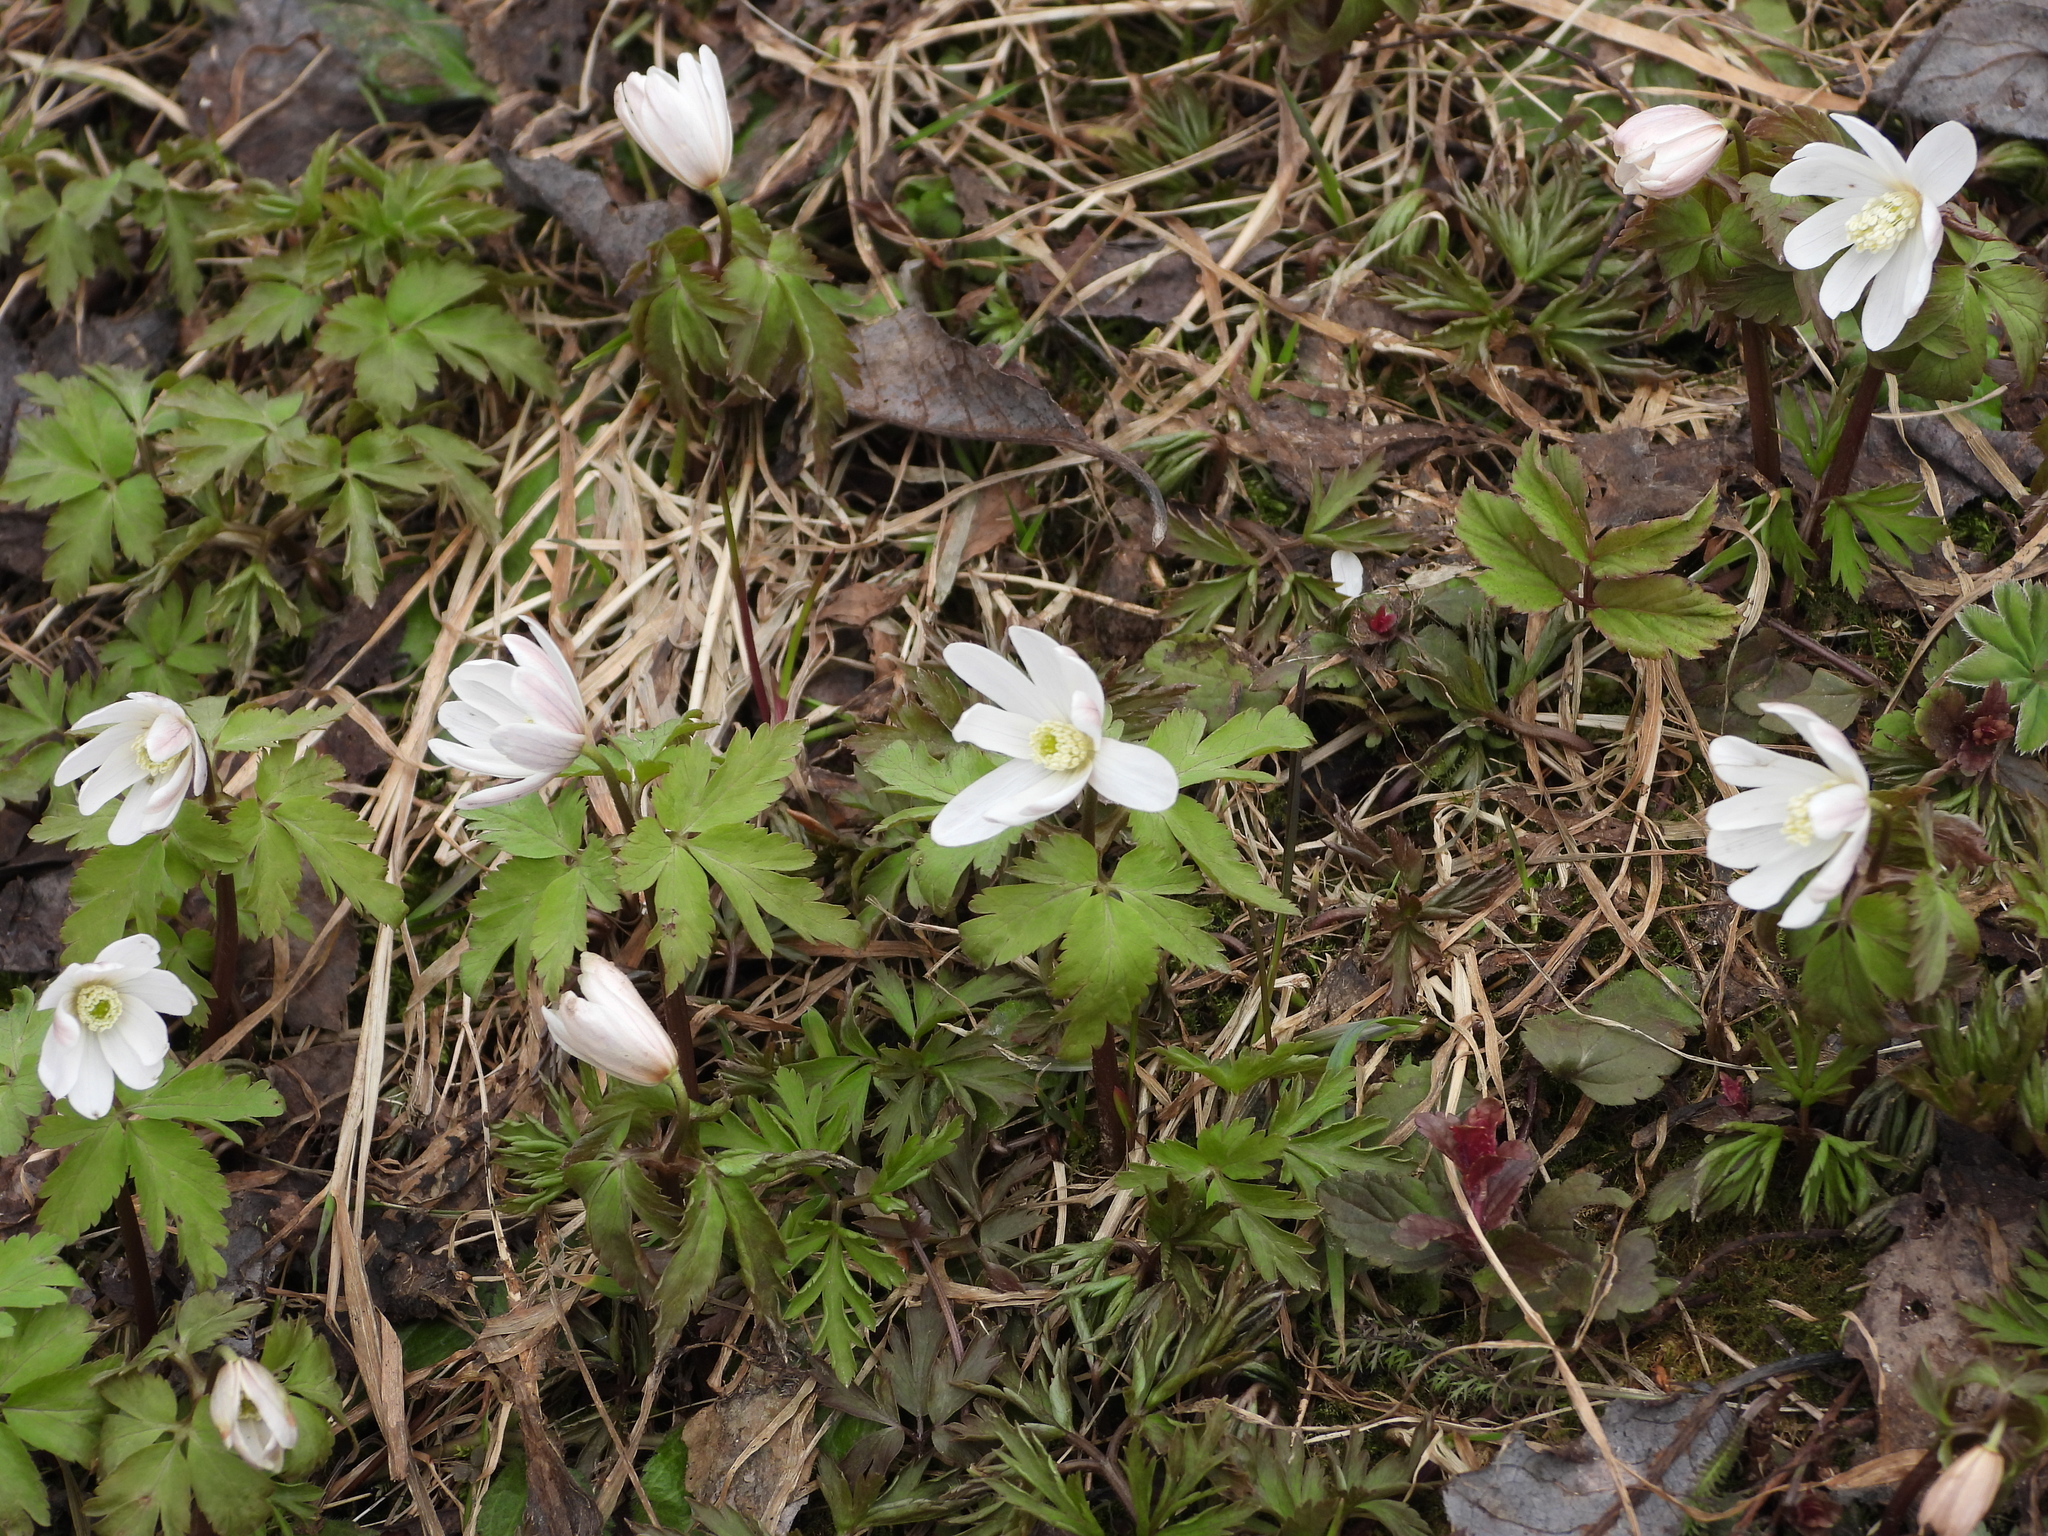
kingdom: Plantae
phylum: Tracheophyta
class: Magnoliopsida
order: Ranunculales
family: Ranunculaceae
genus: Anemone
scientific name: Anemone altaica
